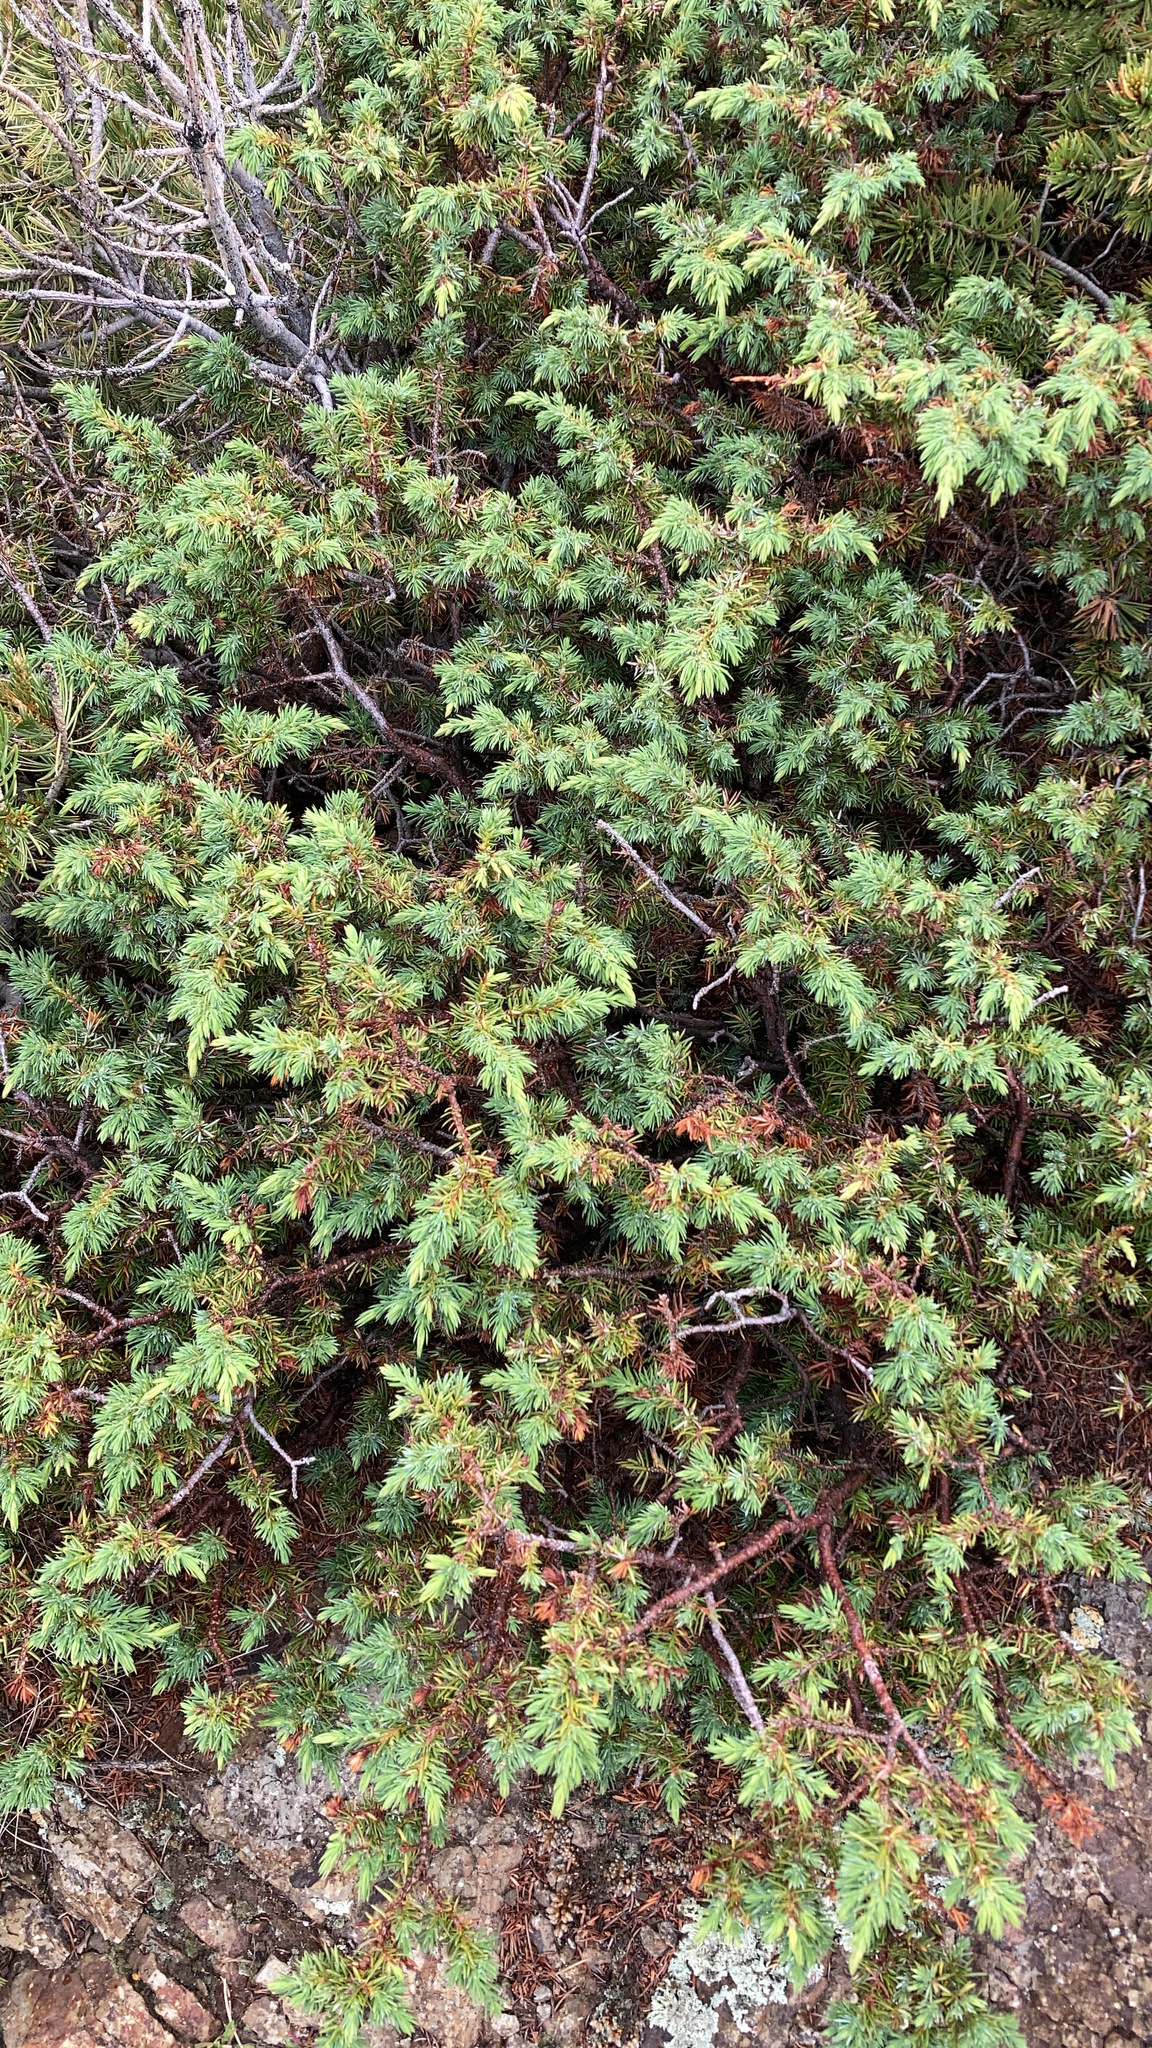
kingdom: Plantae
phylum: Tracheophyta
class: Pinopsida
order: Pinales
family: Cupressaceae
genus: Juniperus
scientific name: Juniperus communis
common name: Common juniper
